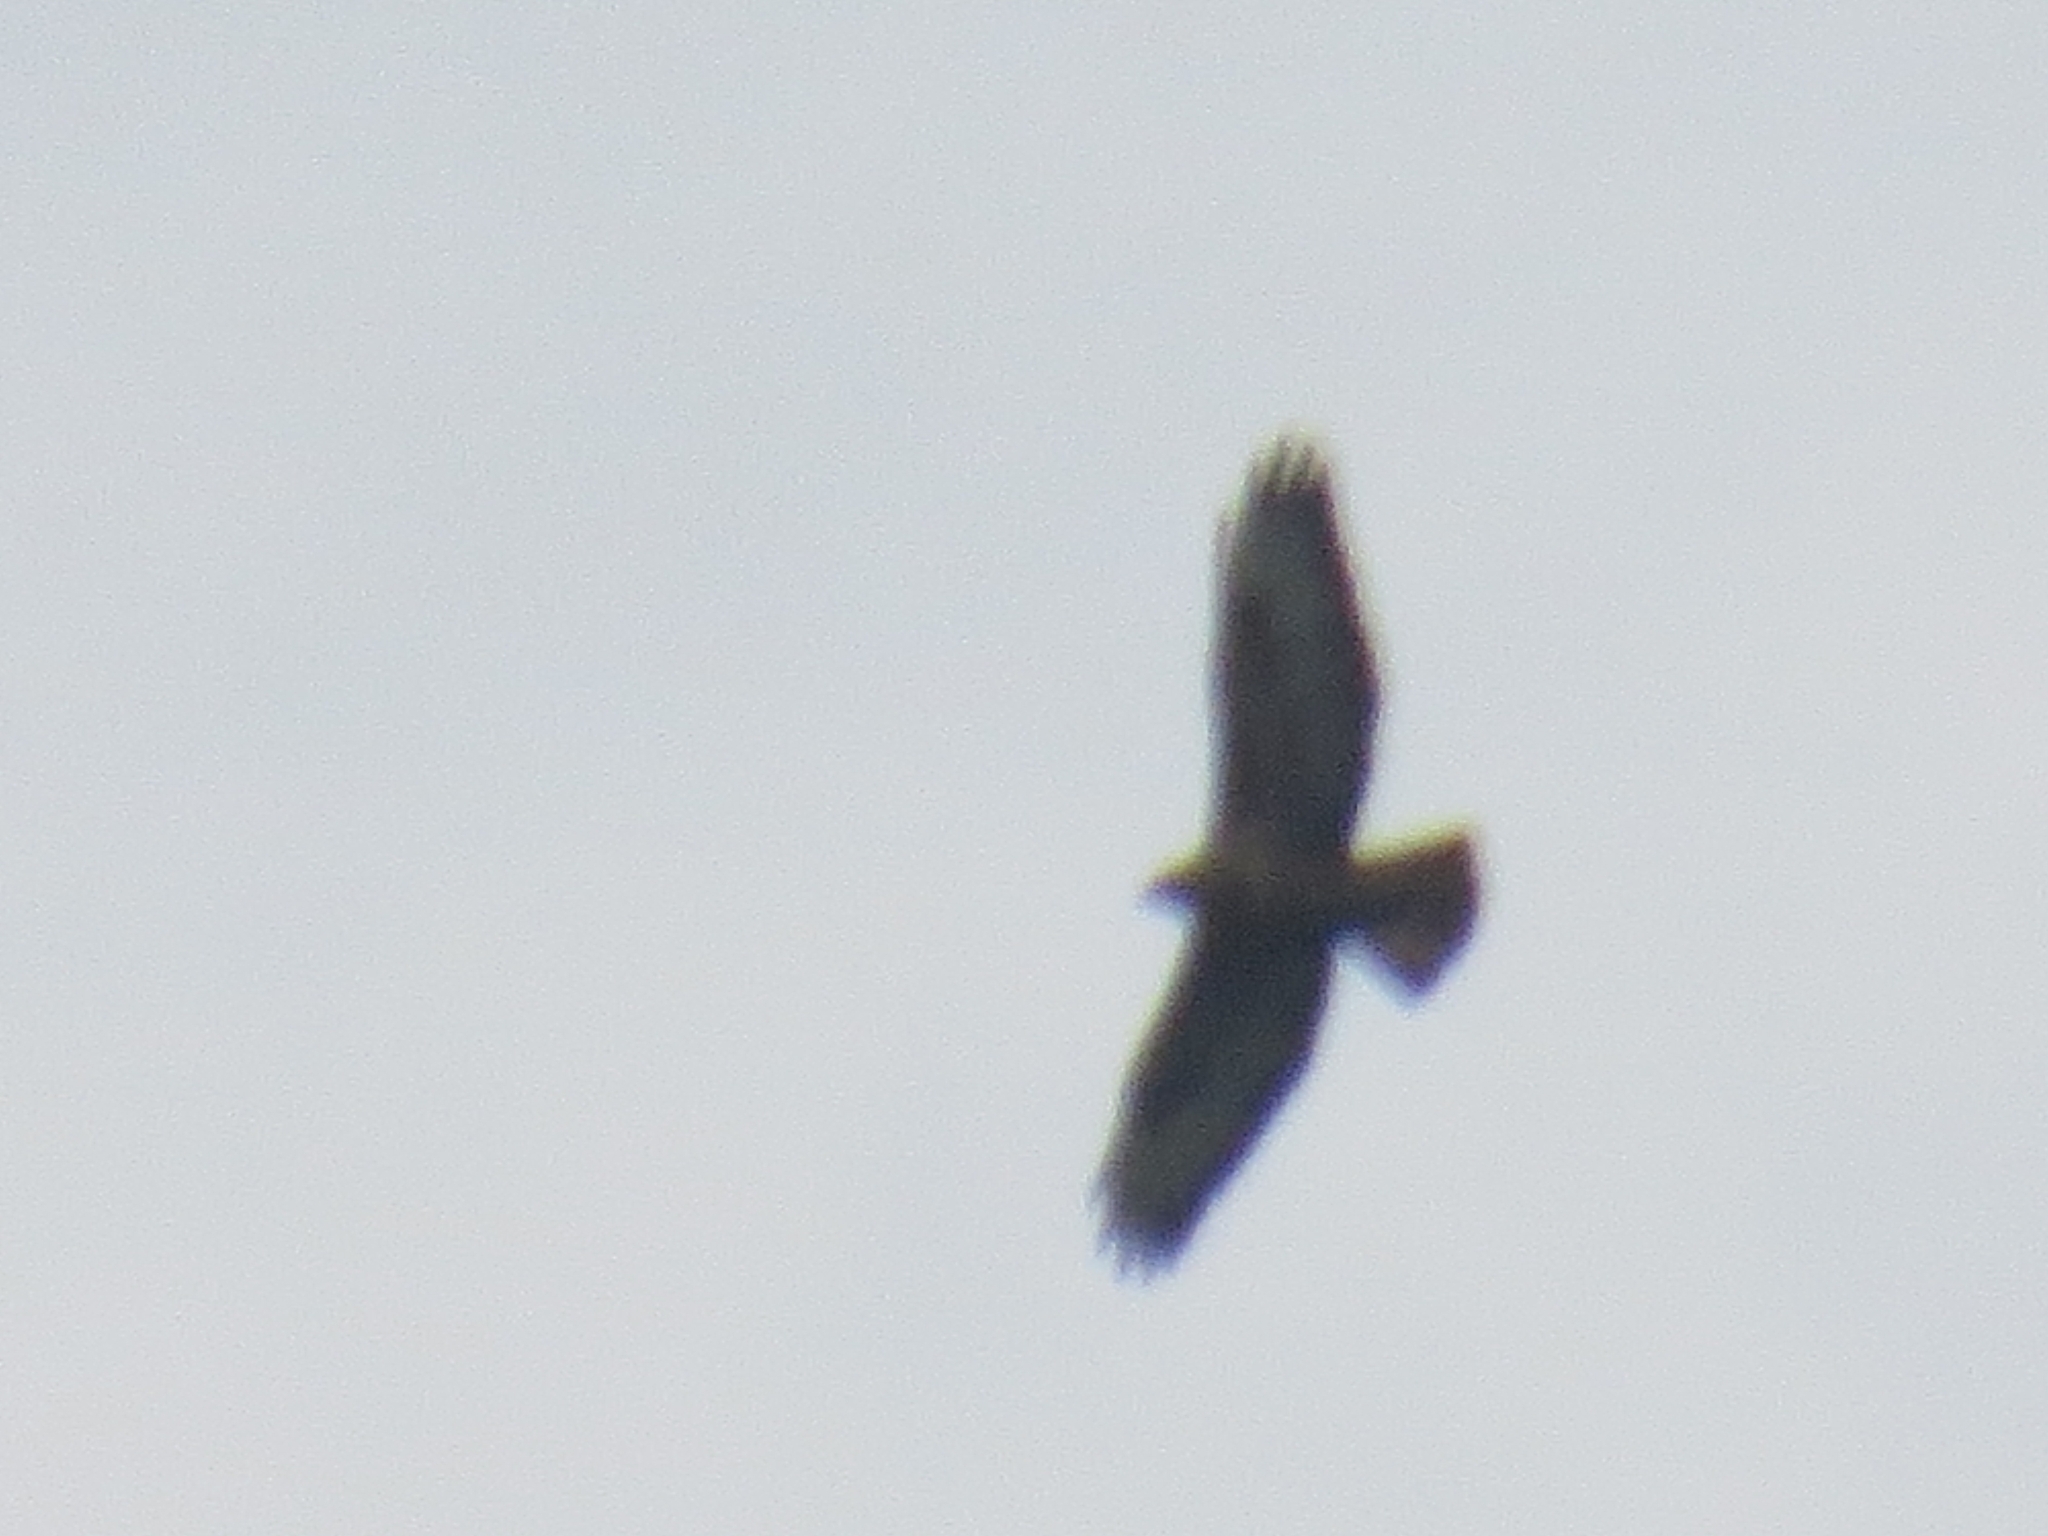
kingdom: Animalia
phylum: Chordata
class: Aves
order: Accipitriformes
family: Accipitridae
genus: Buteo
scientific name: Buteo buteo
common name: Common buzzard
